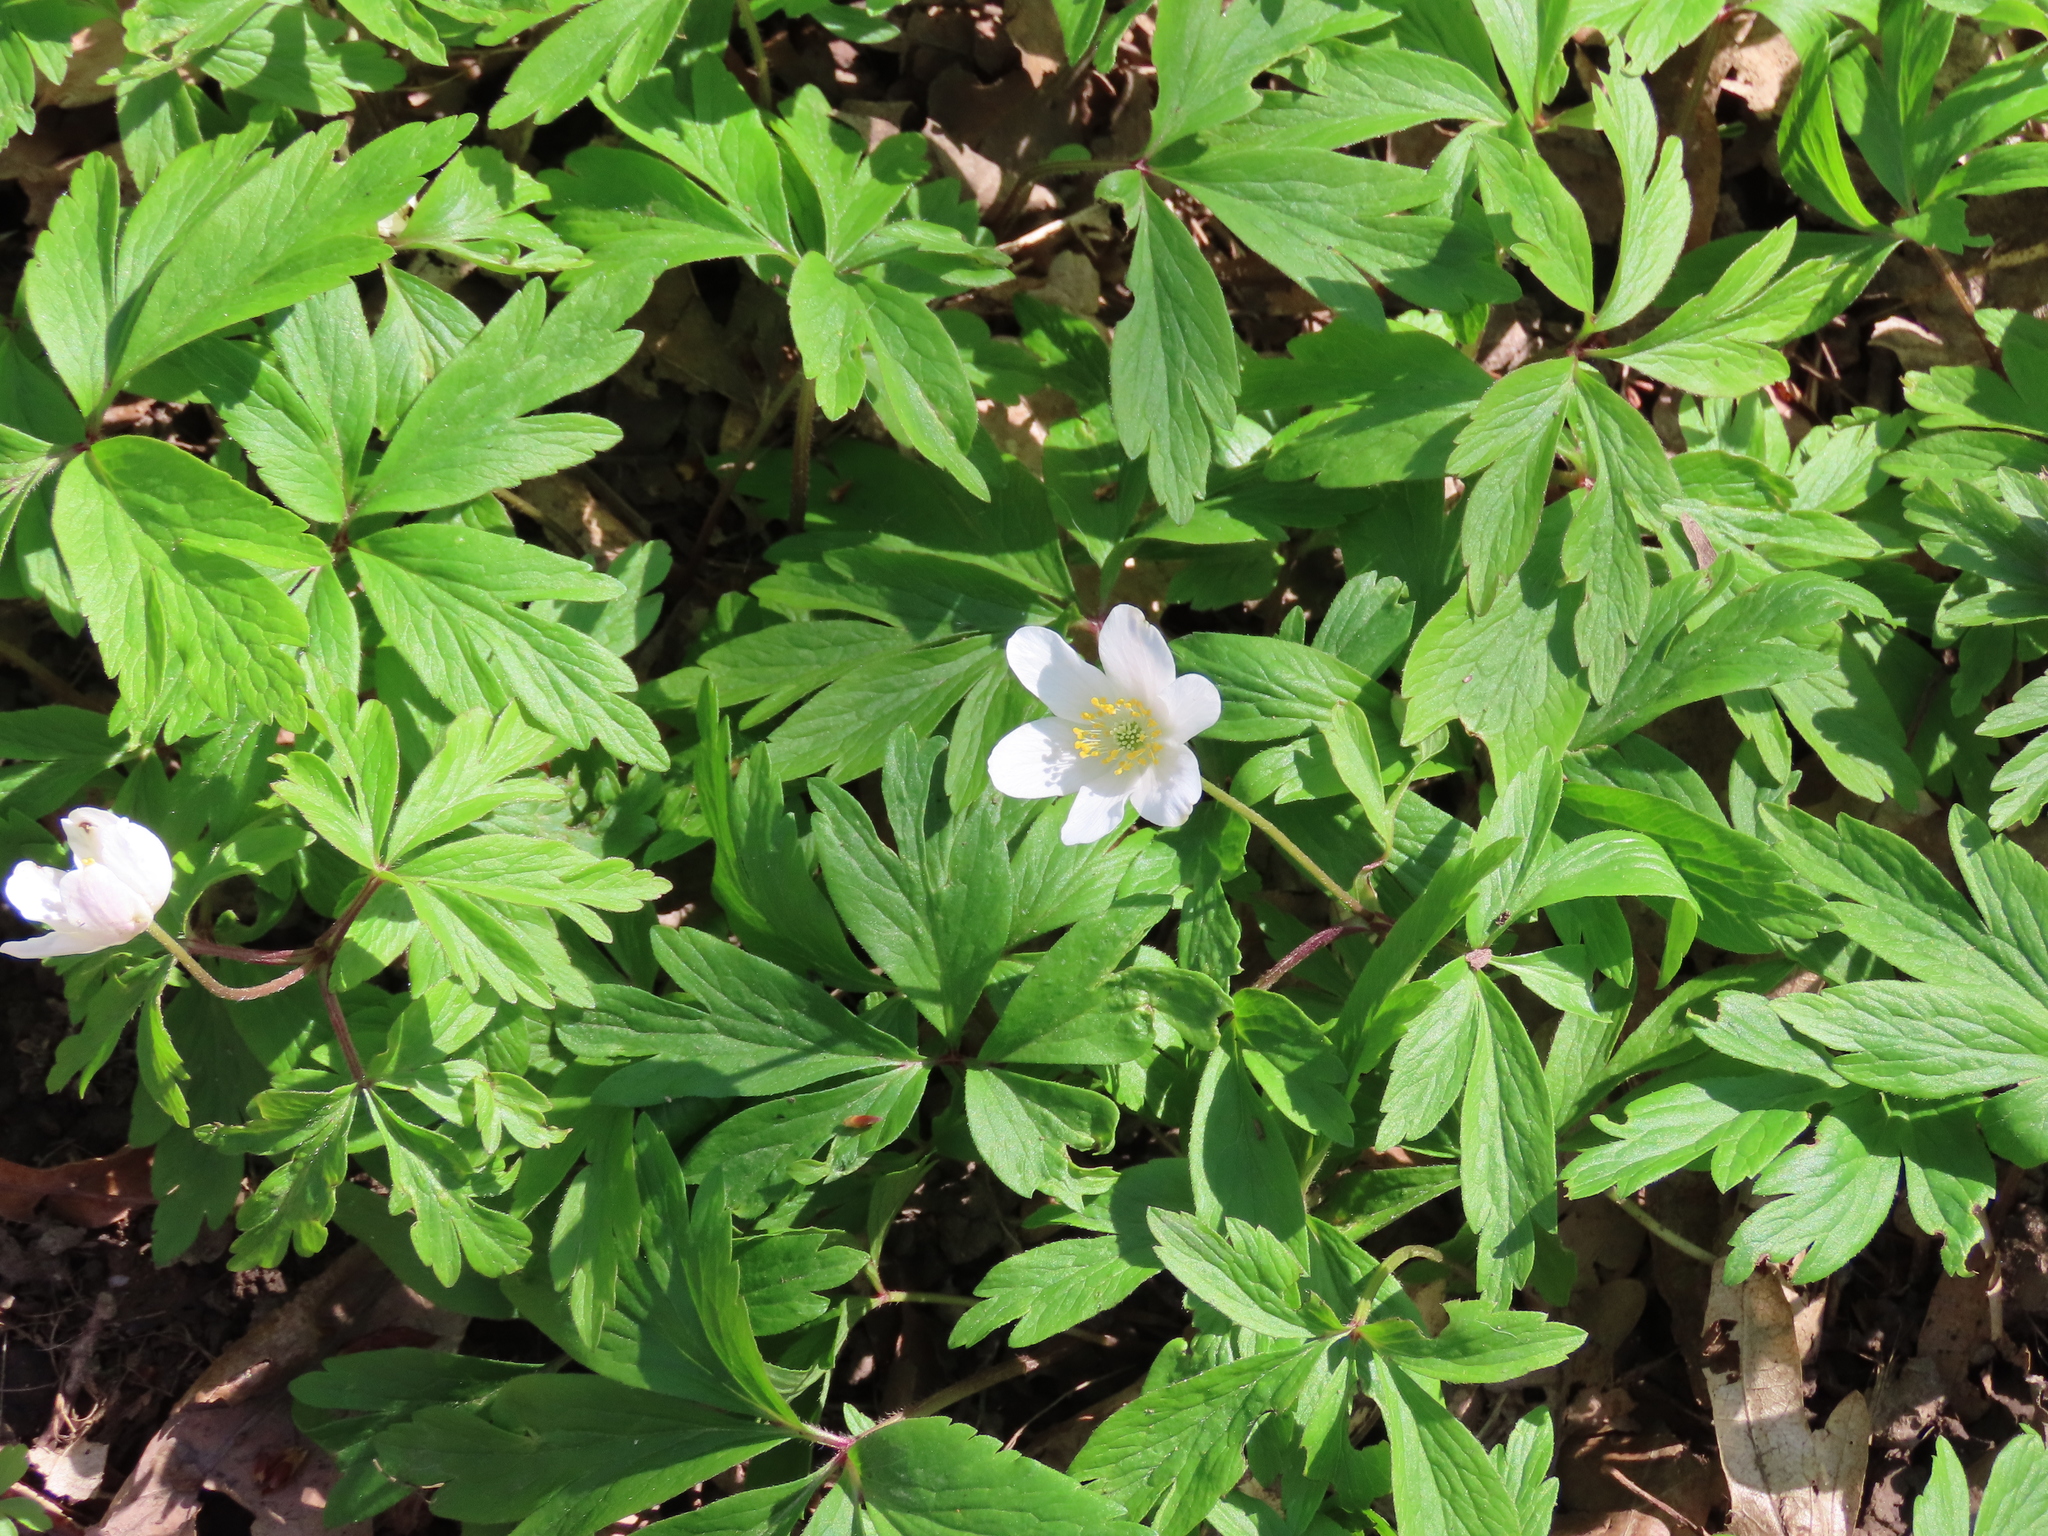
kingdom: Plantae
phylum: Tracheophyta
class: Magnoliopsida
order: Ranunculales
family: Ranunculaceae
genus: Anemone
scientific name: Anemone nemorosa
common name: Wood anemone
